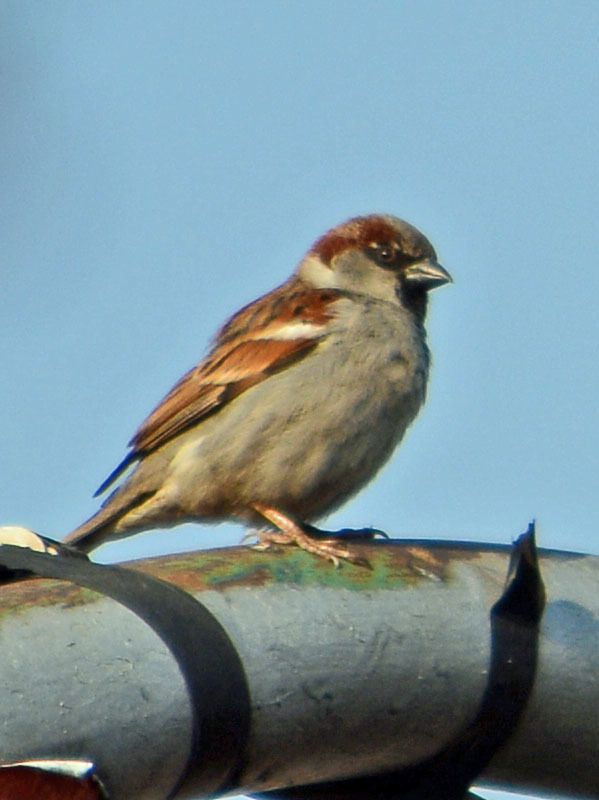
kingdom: Animalia
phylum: Chordata
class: Aves
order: Passeriformes
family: Passeridae
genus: Passer
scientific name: Passer domesticus
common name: House sparrow
